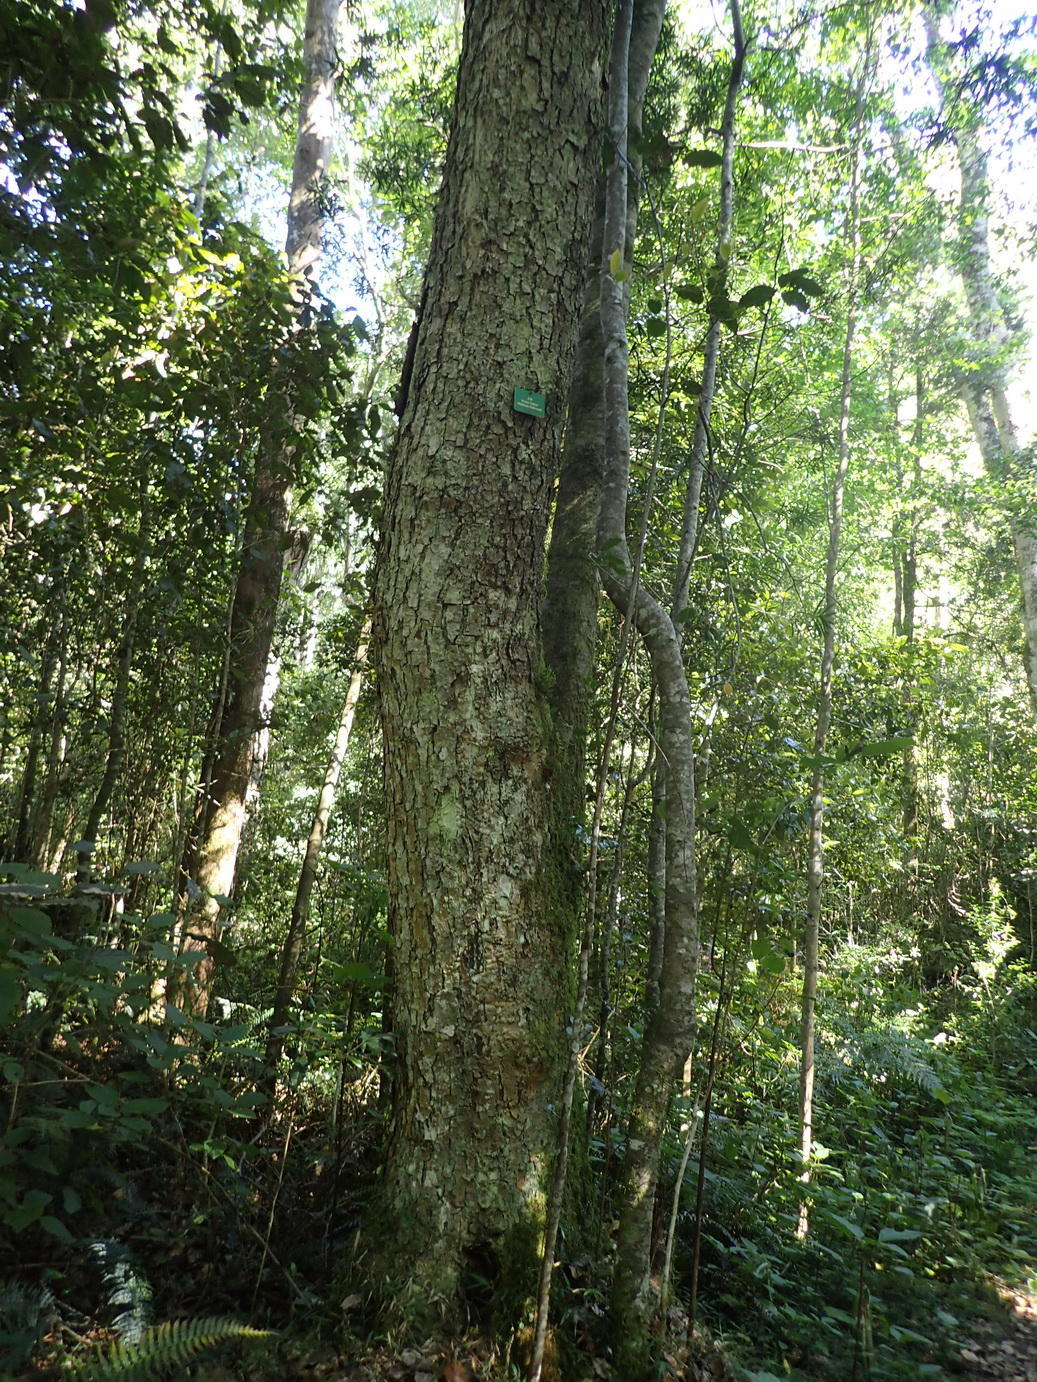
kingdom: Plantae
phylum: Tracheophyta
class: Magnoliopsida
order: Laurales
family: Lauraceae
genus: Ocotea
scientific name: Ocotea bullata
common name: Black stinkwood
